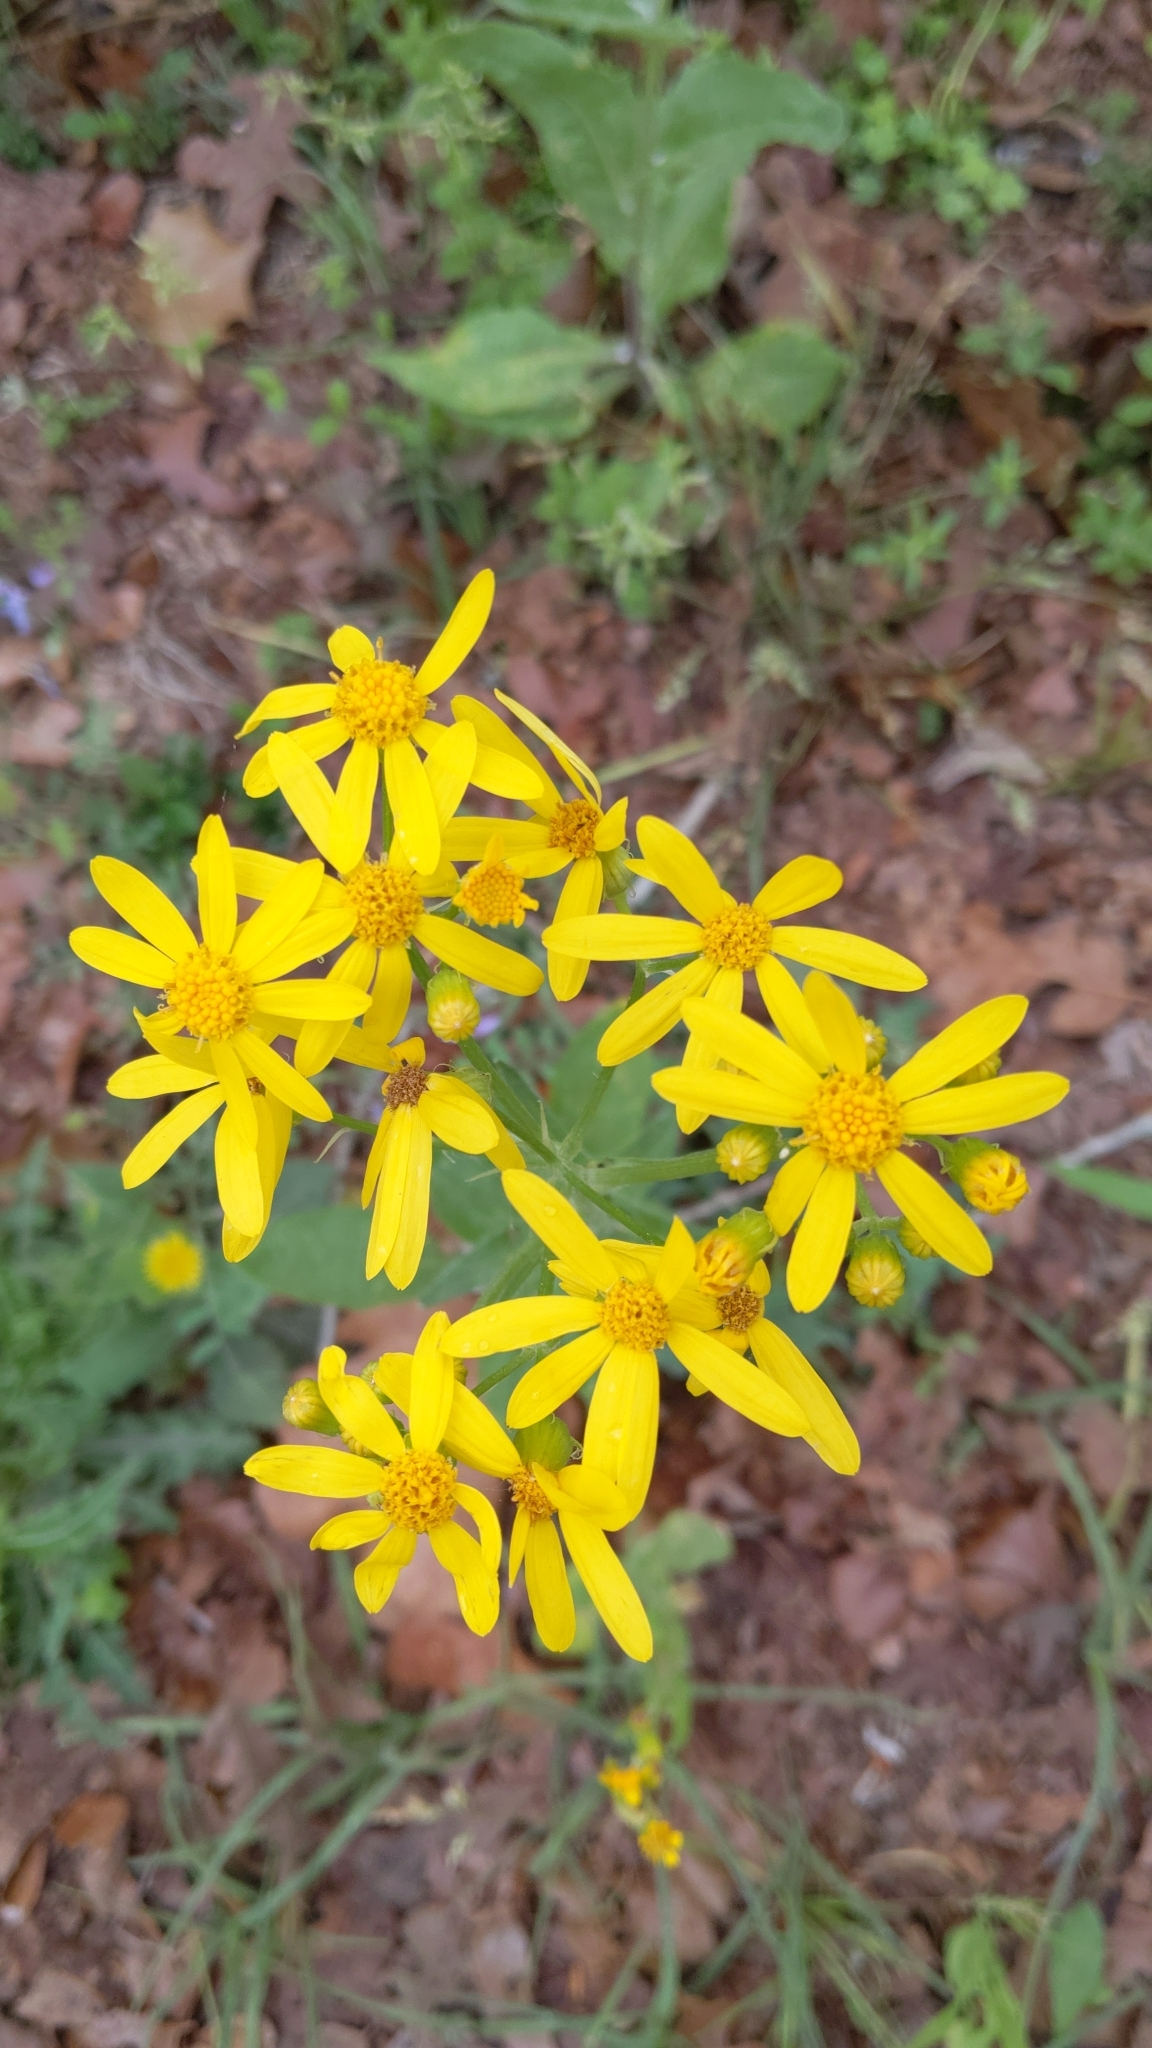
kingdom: Plantae
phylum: Tracheophyta
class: Magnoliopsida
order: Asterales
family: Asteraceae
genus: Senecio
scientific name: Senecio ampullaceus
